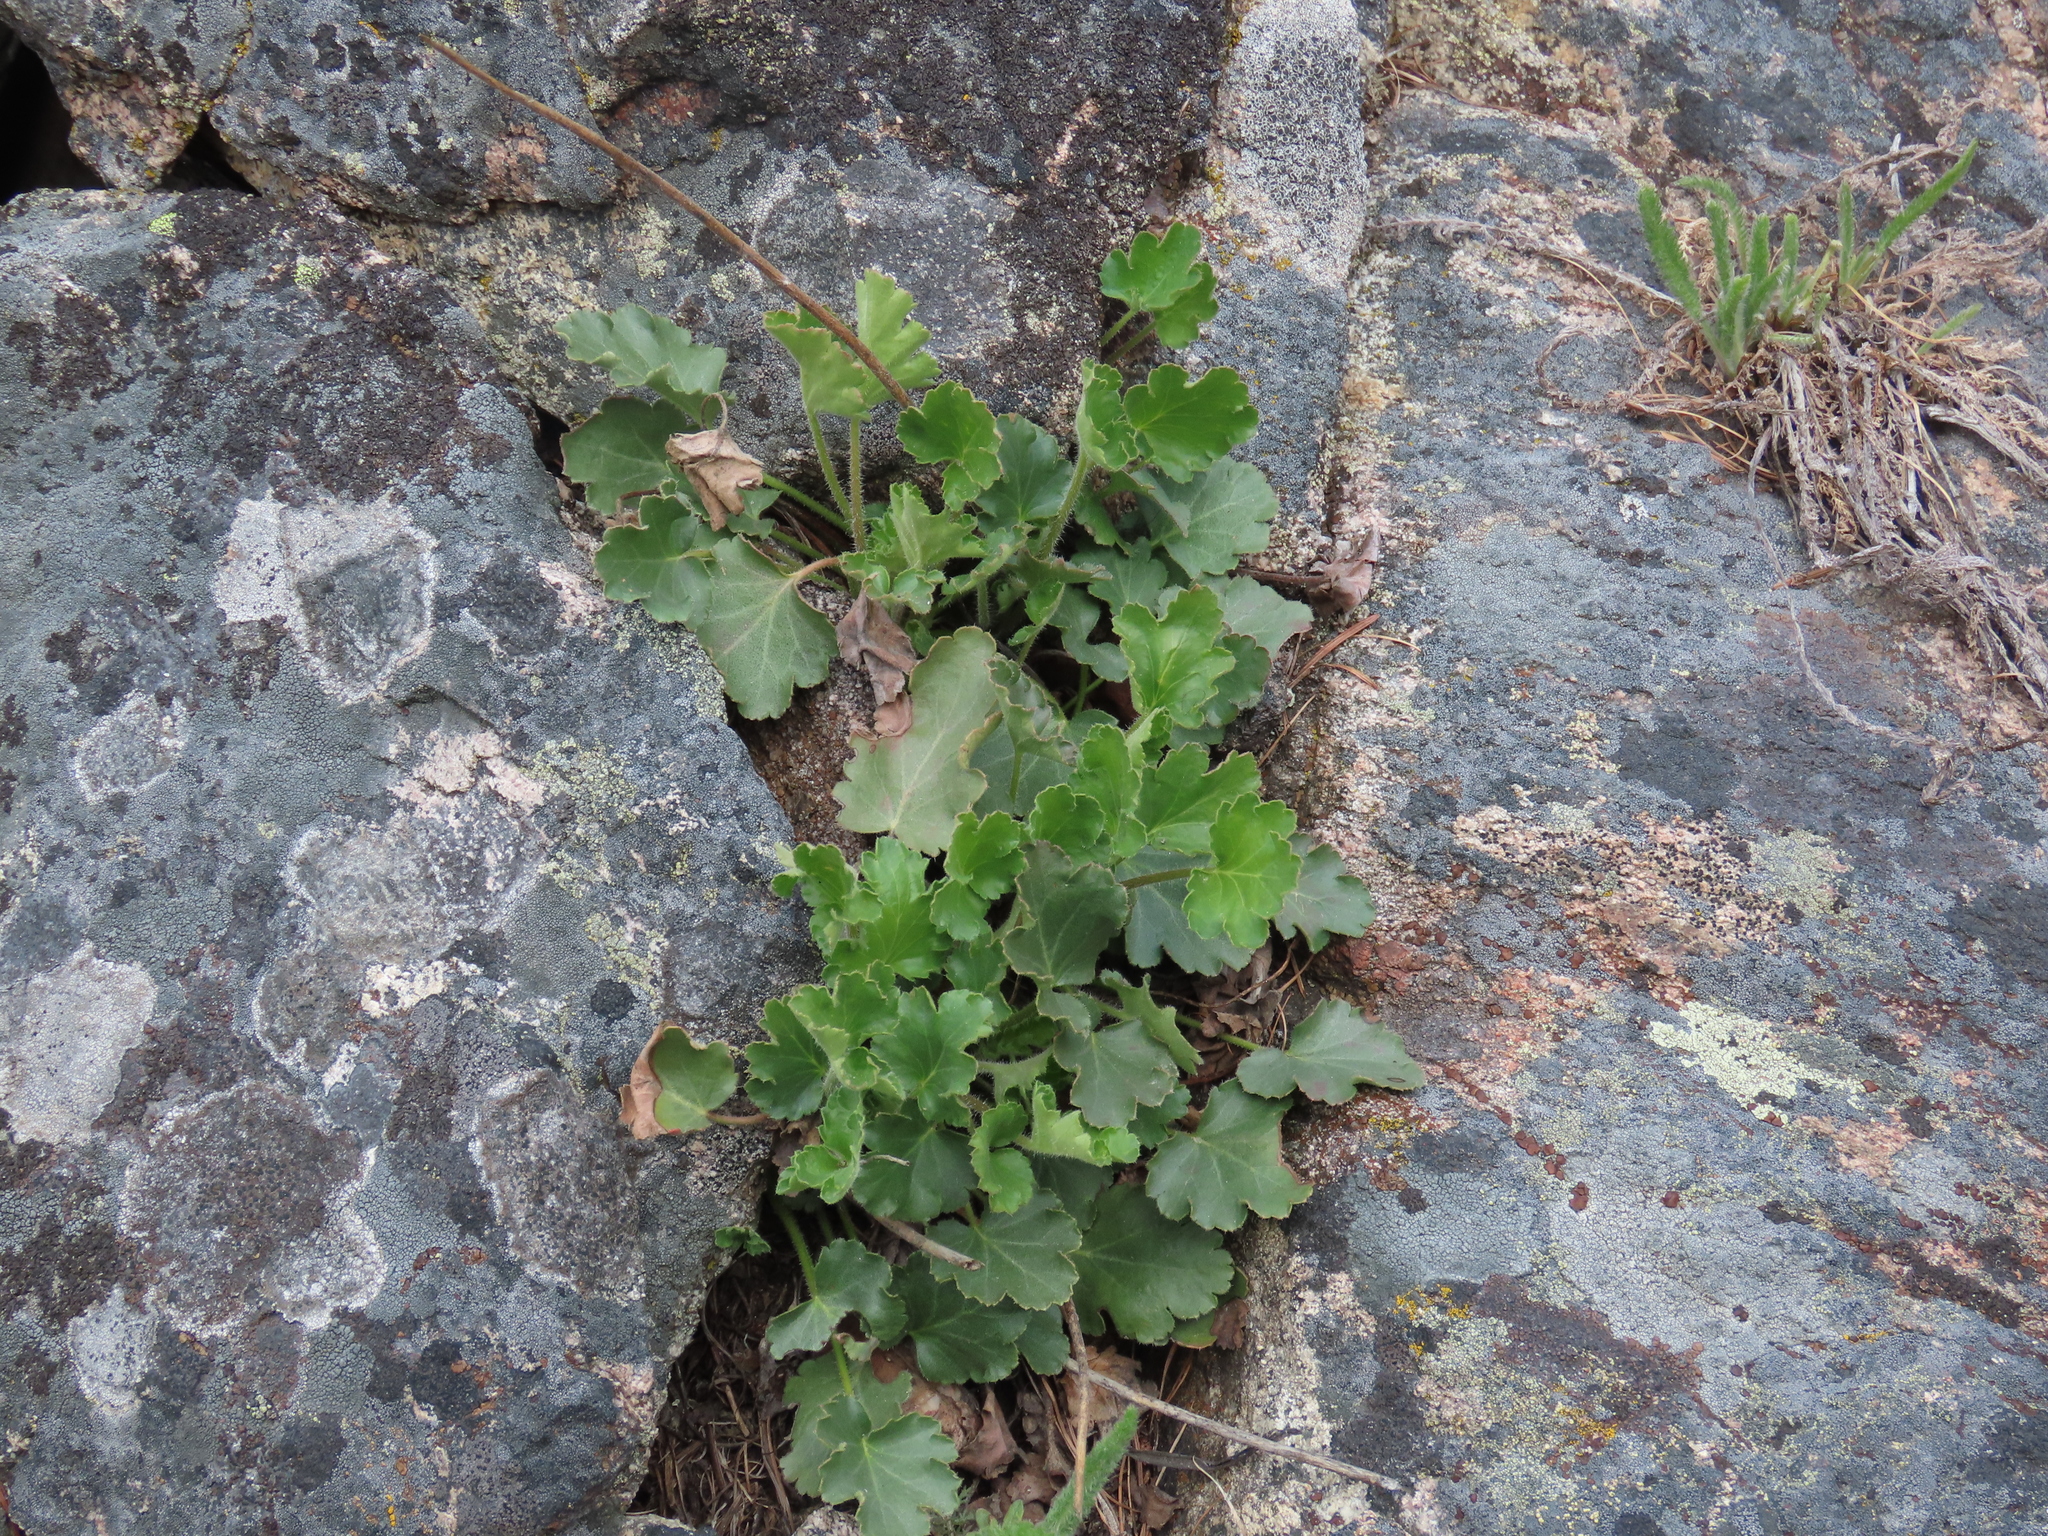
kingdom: Plantae
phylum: Tracheophyta
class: Magnoliopsida
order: Saxifragales
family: Saxifragaceae
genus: Heuchera
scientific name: Heuchera cylindrica
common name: Mat alumroot
